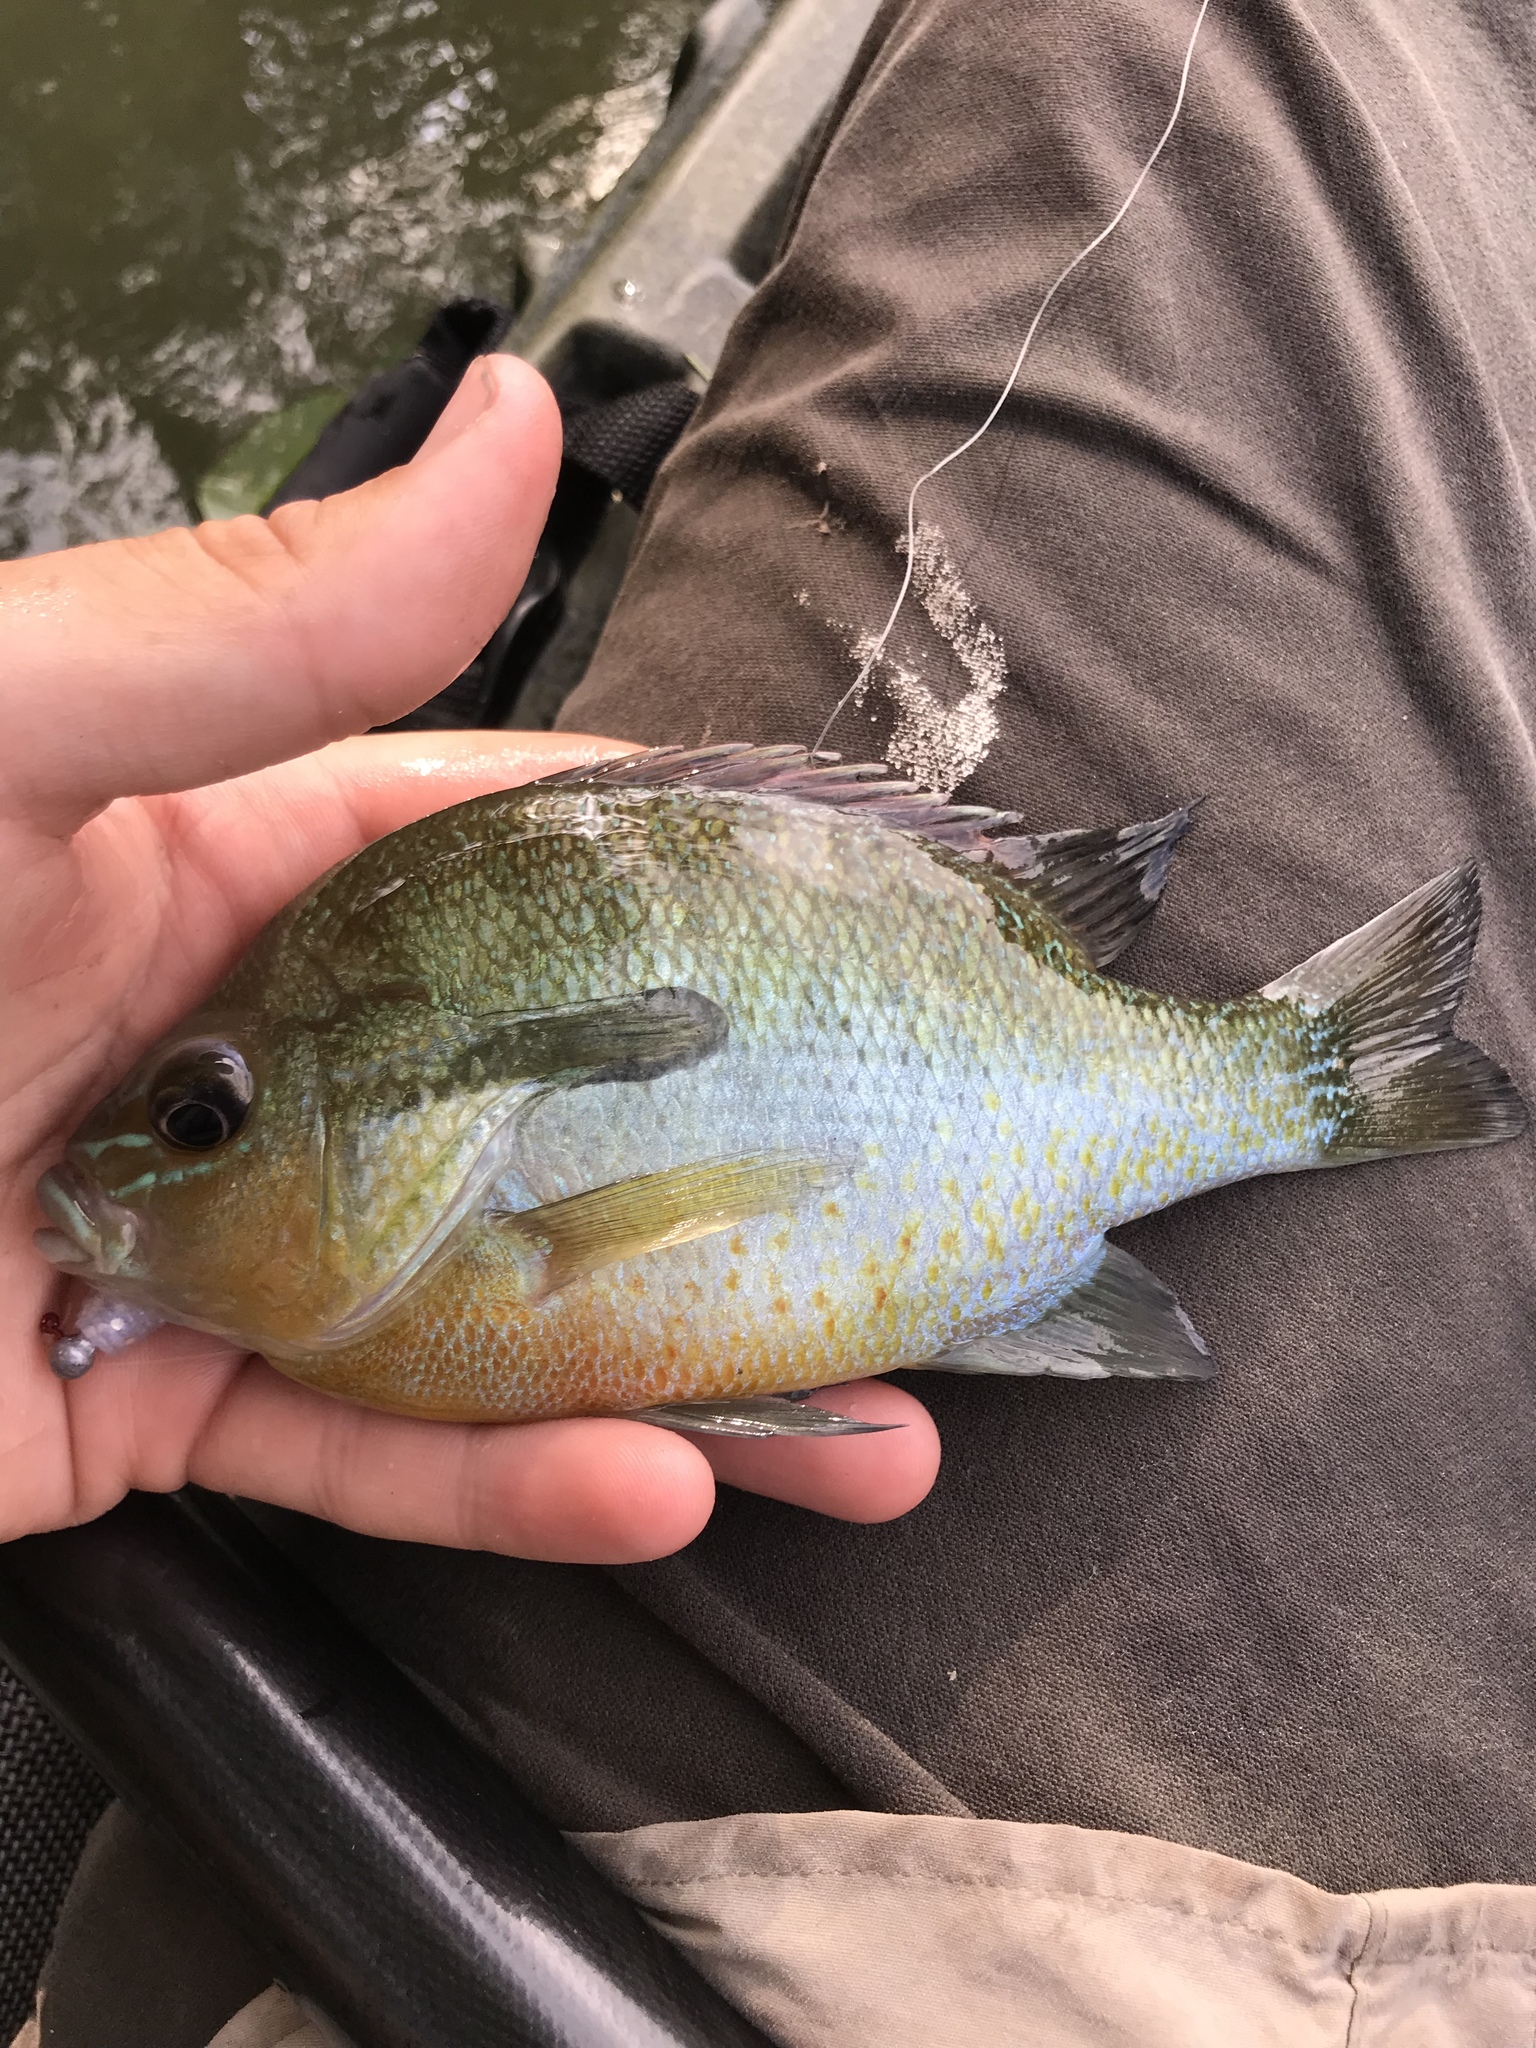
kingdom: Animalia
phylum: Chordata
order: Perciformes
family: Centrarchidae
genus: Lepomis
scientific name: Lepomis auritus
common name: Redbreast sunfish
